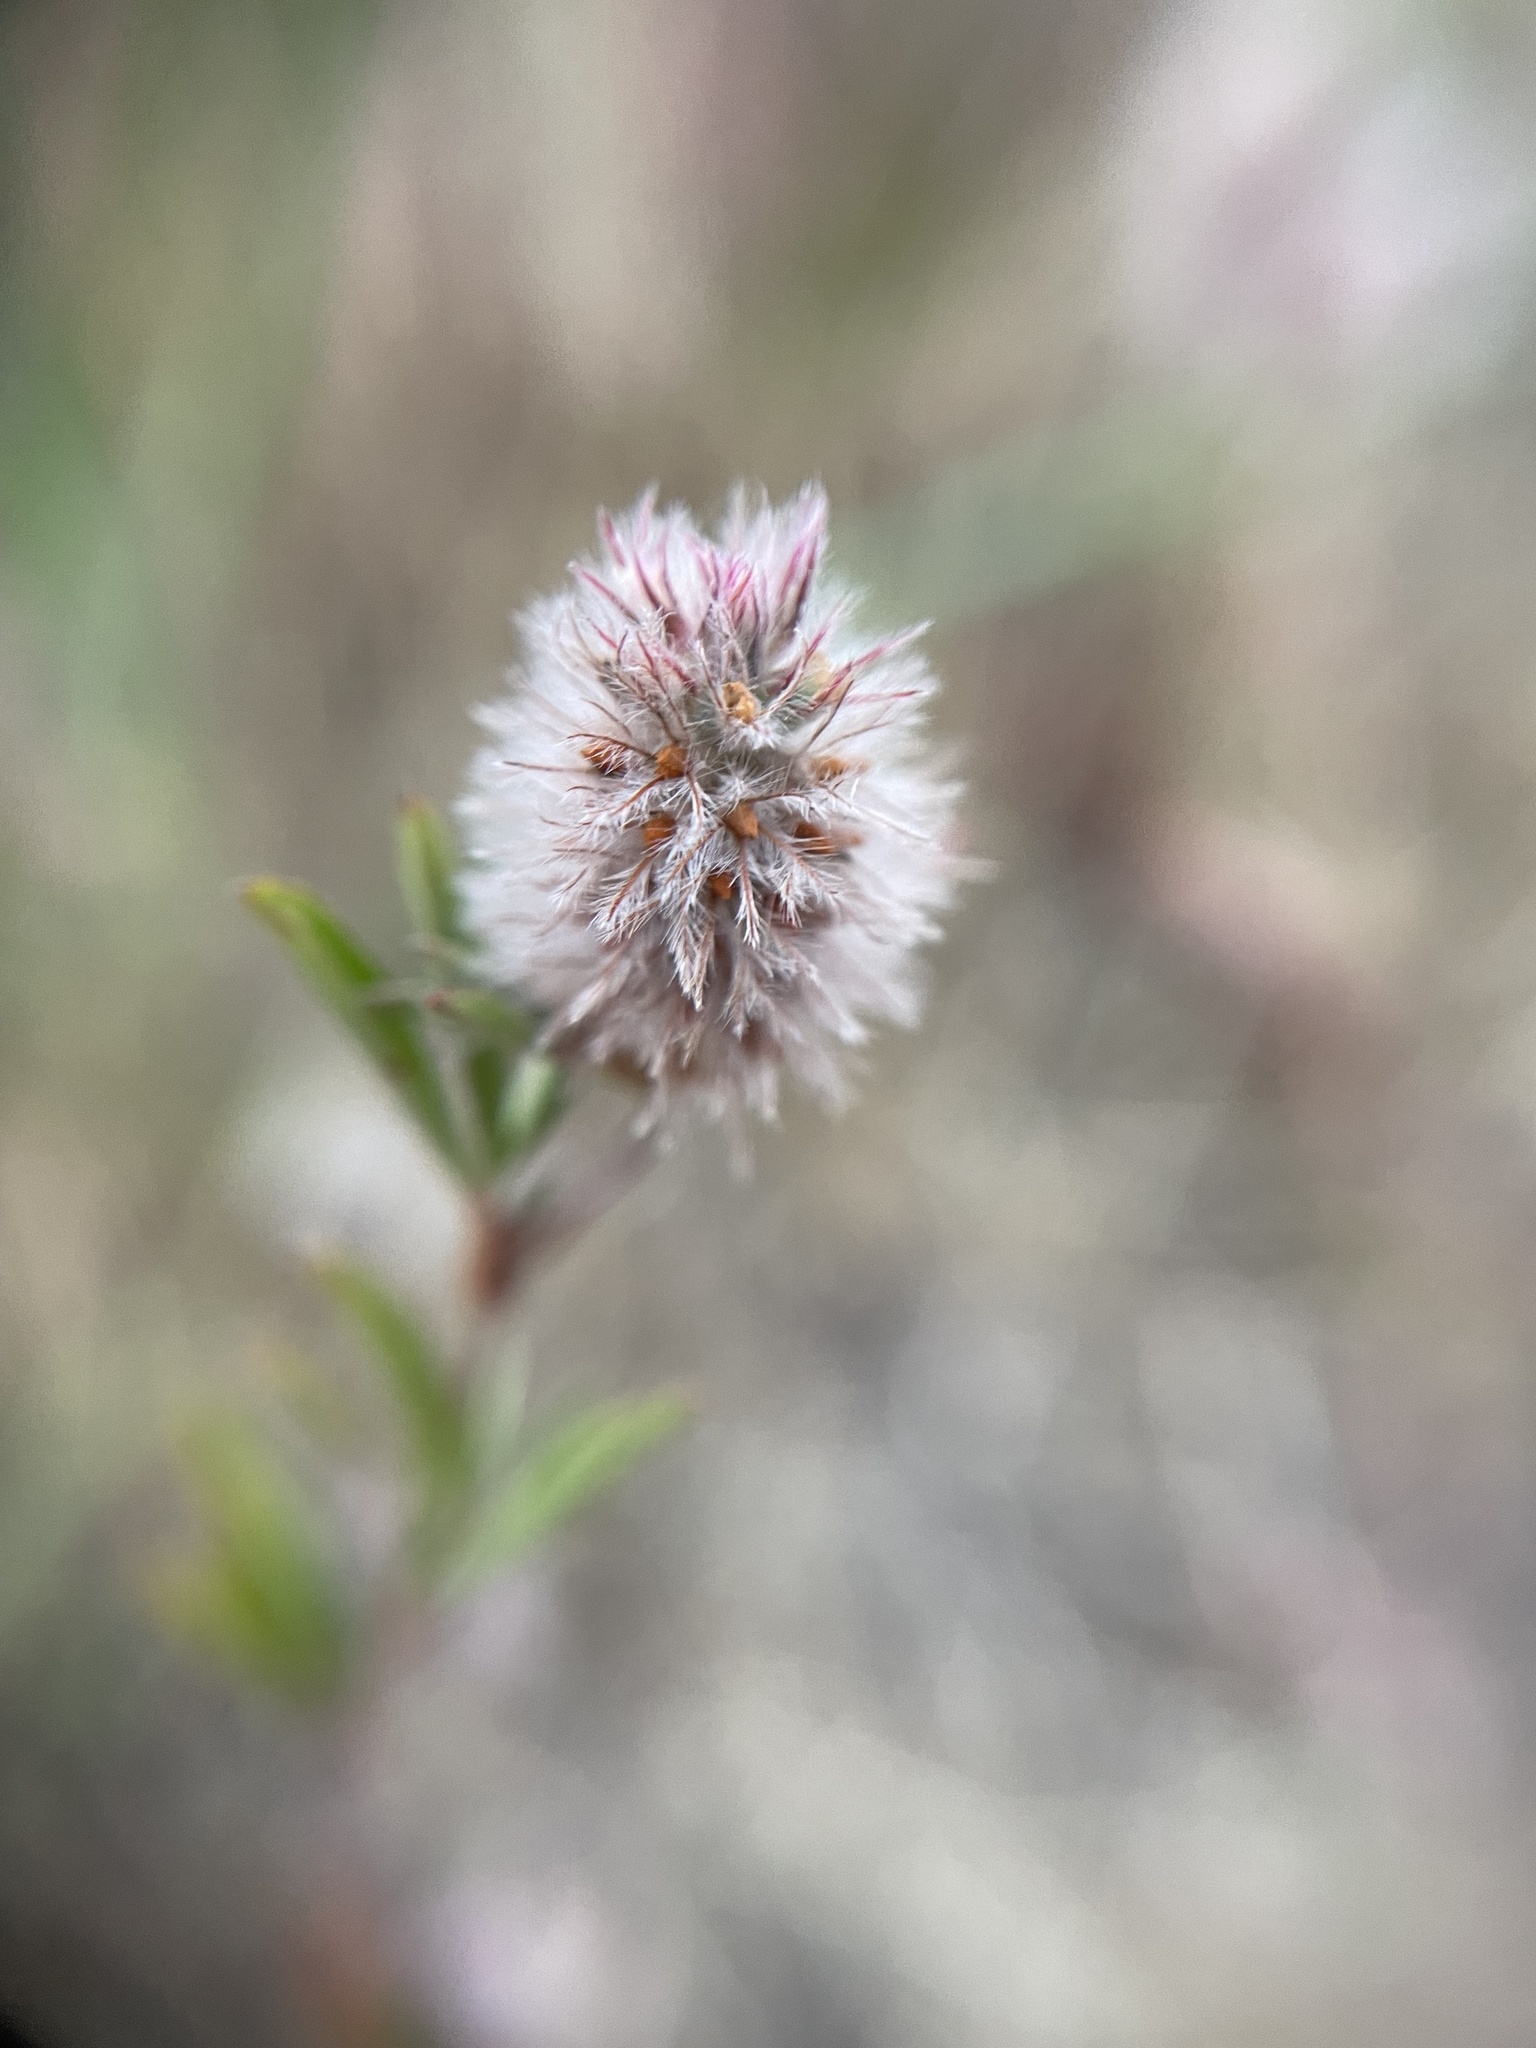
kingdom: Plantae
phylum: Tracheophyta
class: Magnoliopsida
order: Fabales
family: Fabaceae
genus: Trifolium
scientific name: Trifolium arvense
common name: Hare's-foot clover
